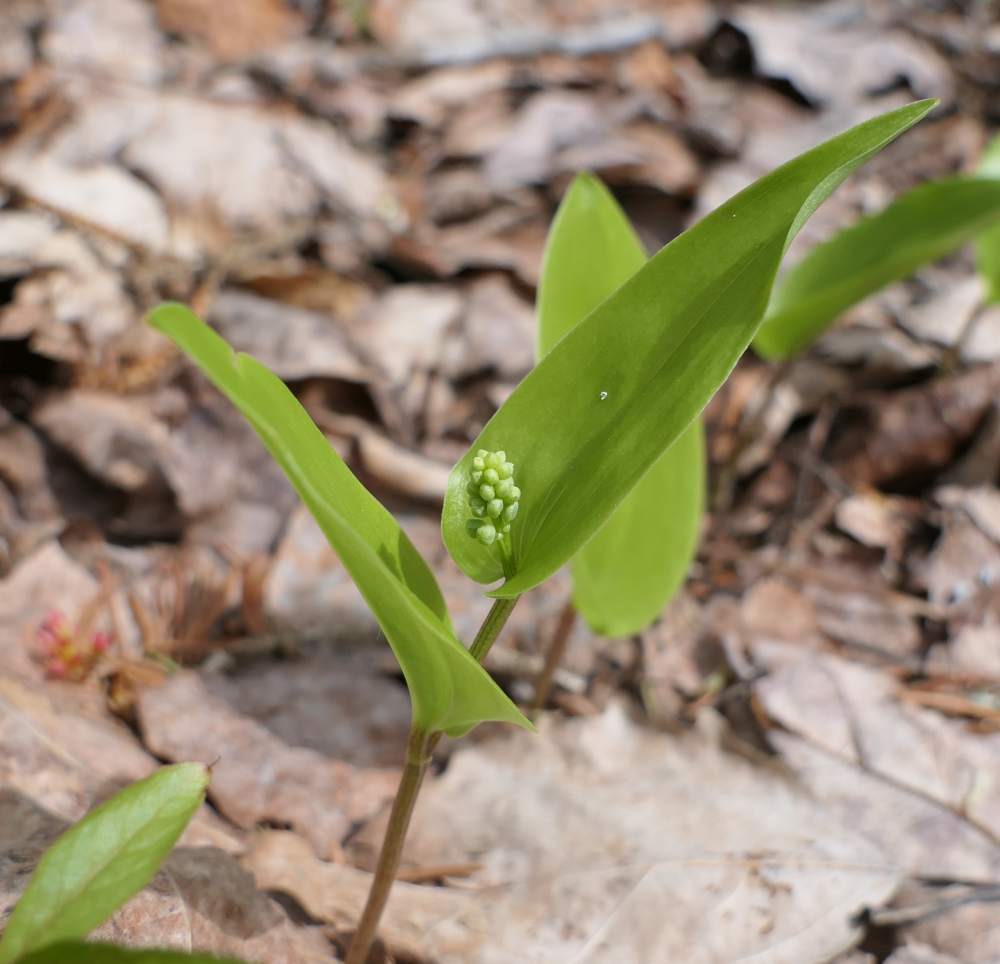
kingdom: Plantae
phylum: Tracheophyta
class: Liliopsida
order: Asparagales
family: Asparagaceae
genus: Maianthemum
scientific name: Maianthemum canadense
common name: False lily-of-the-valley
